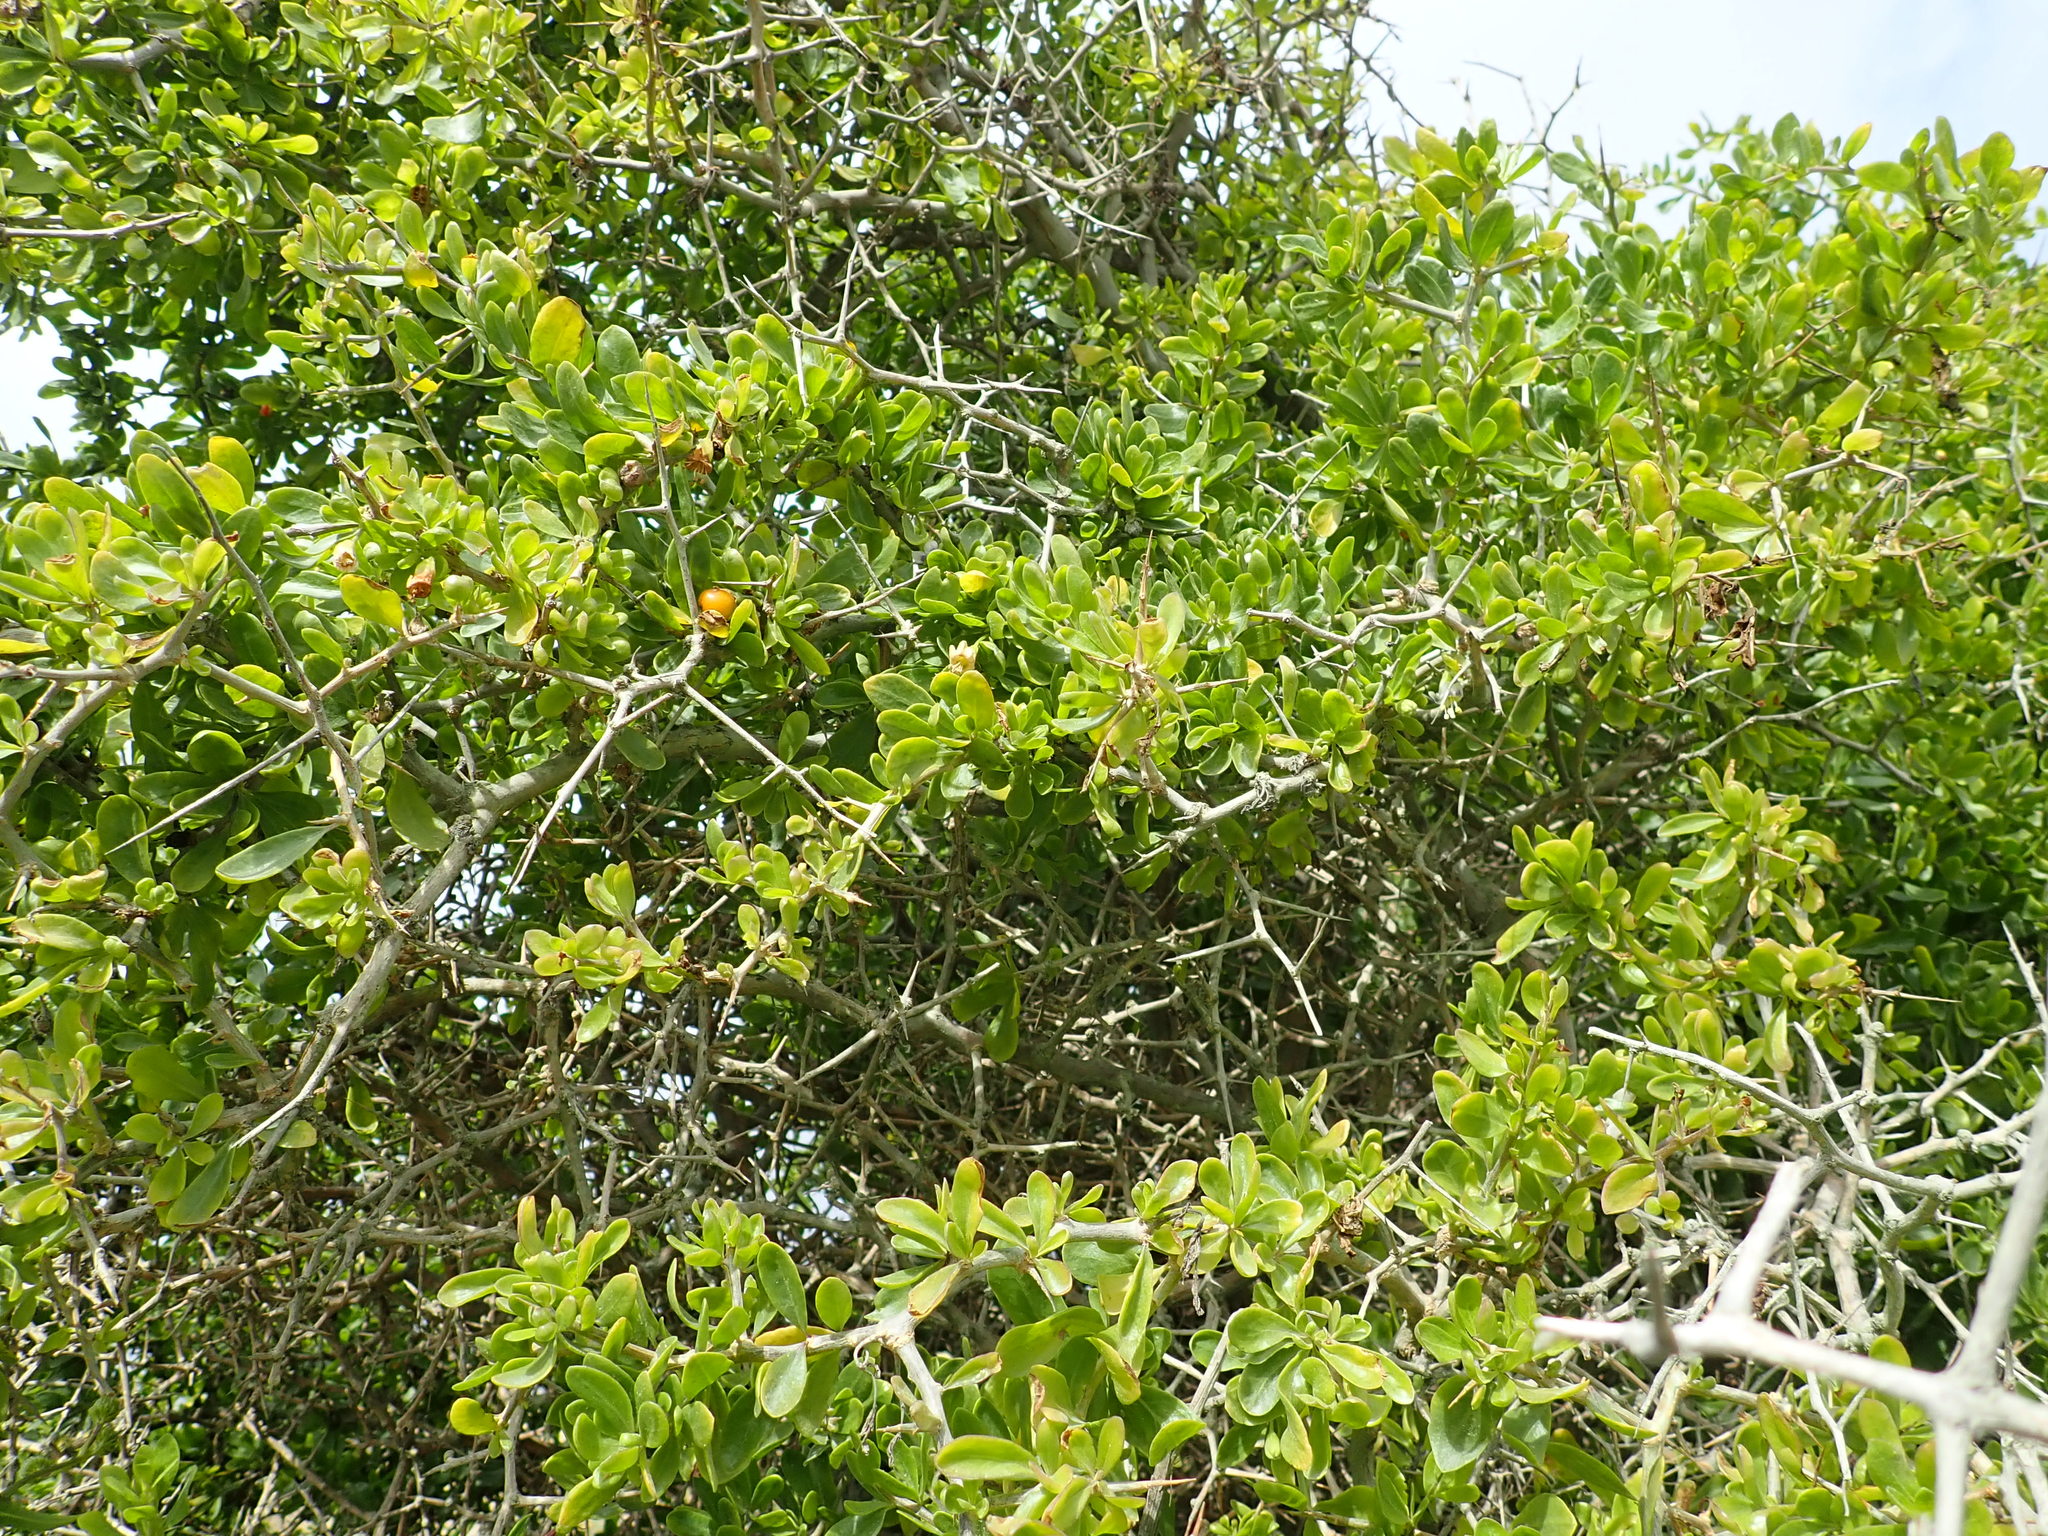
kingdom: Plantae
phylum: Tracheophyta
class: Magnoliopsida
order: Solanales
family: Solanaceae
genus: Lycium
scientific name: Lycium ferocissimum
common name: African boxthorn
